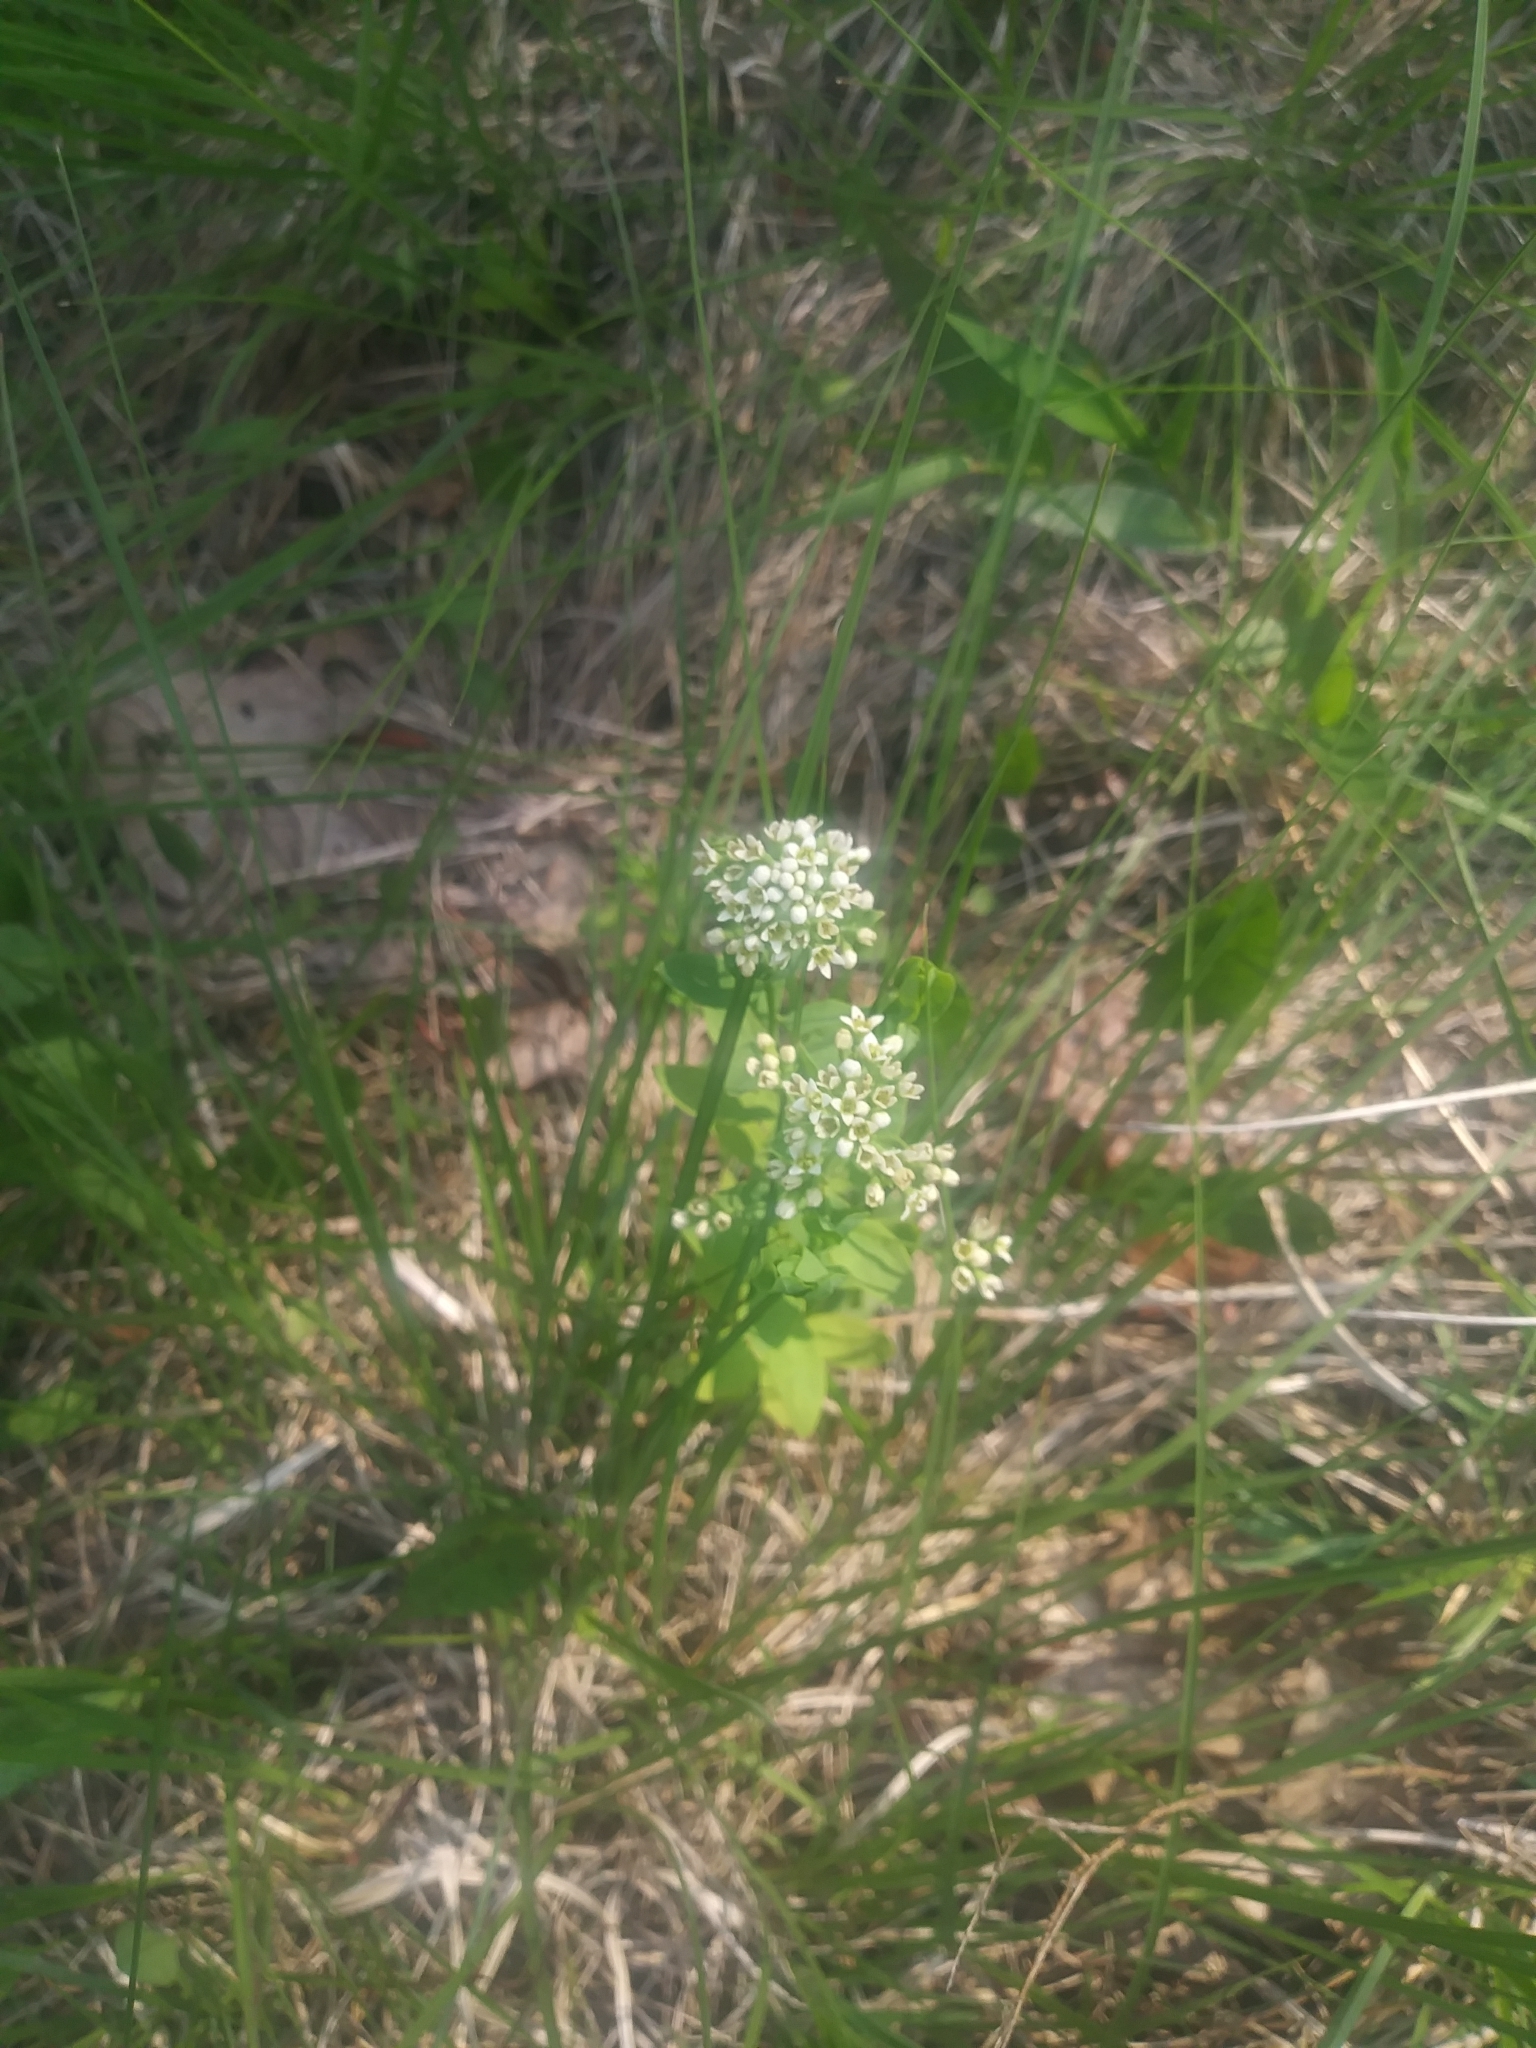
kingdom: Plantae
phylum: Tracheophyta
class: Magnoliopsida
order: Santalales
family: Comandraceae
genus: Comandra
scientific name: Comandra umbellata
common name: Bastard toadflax
